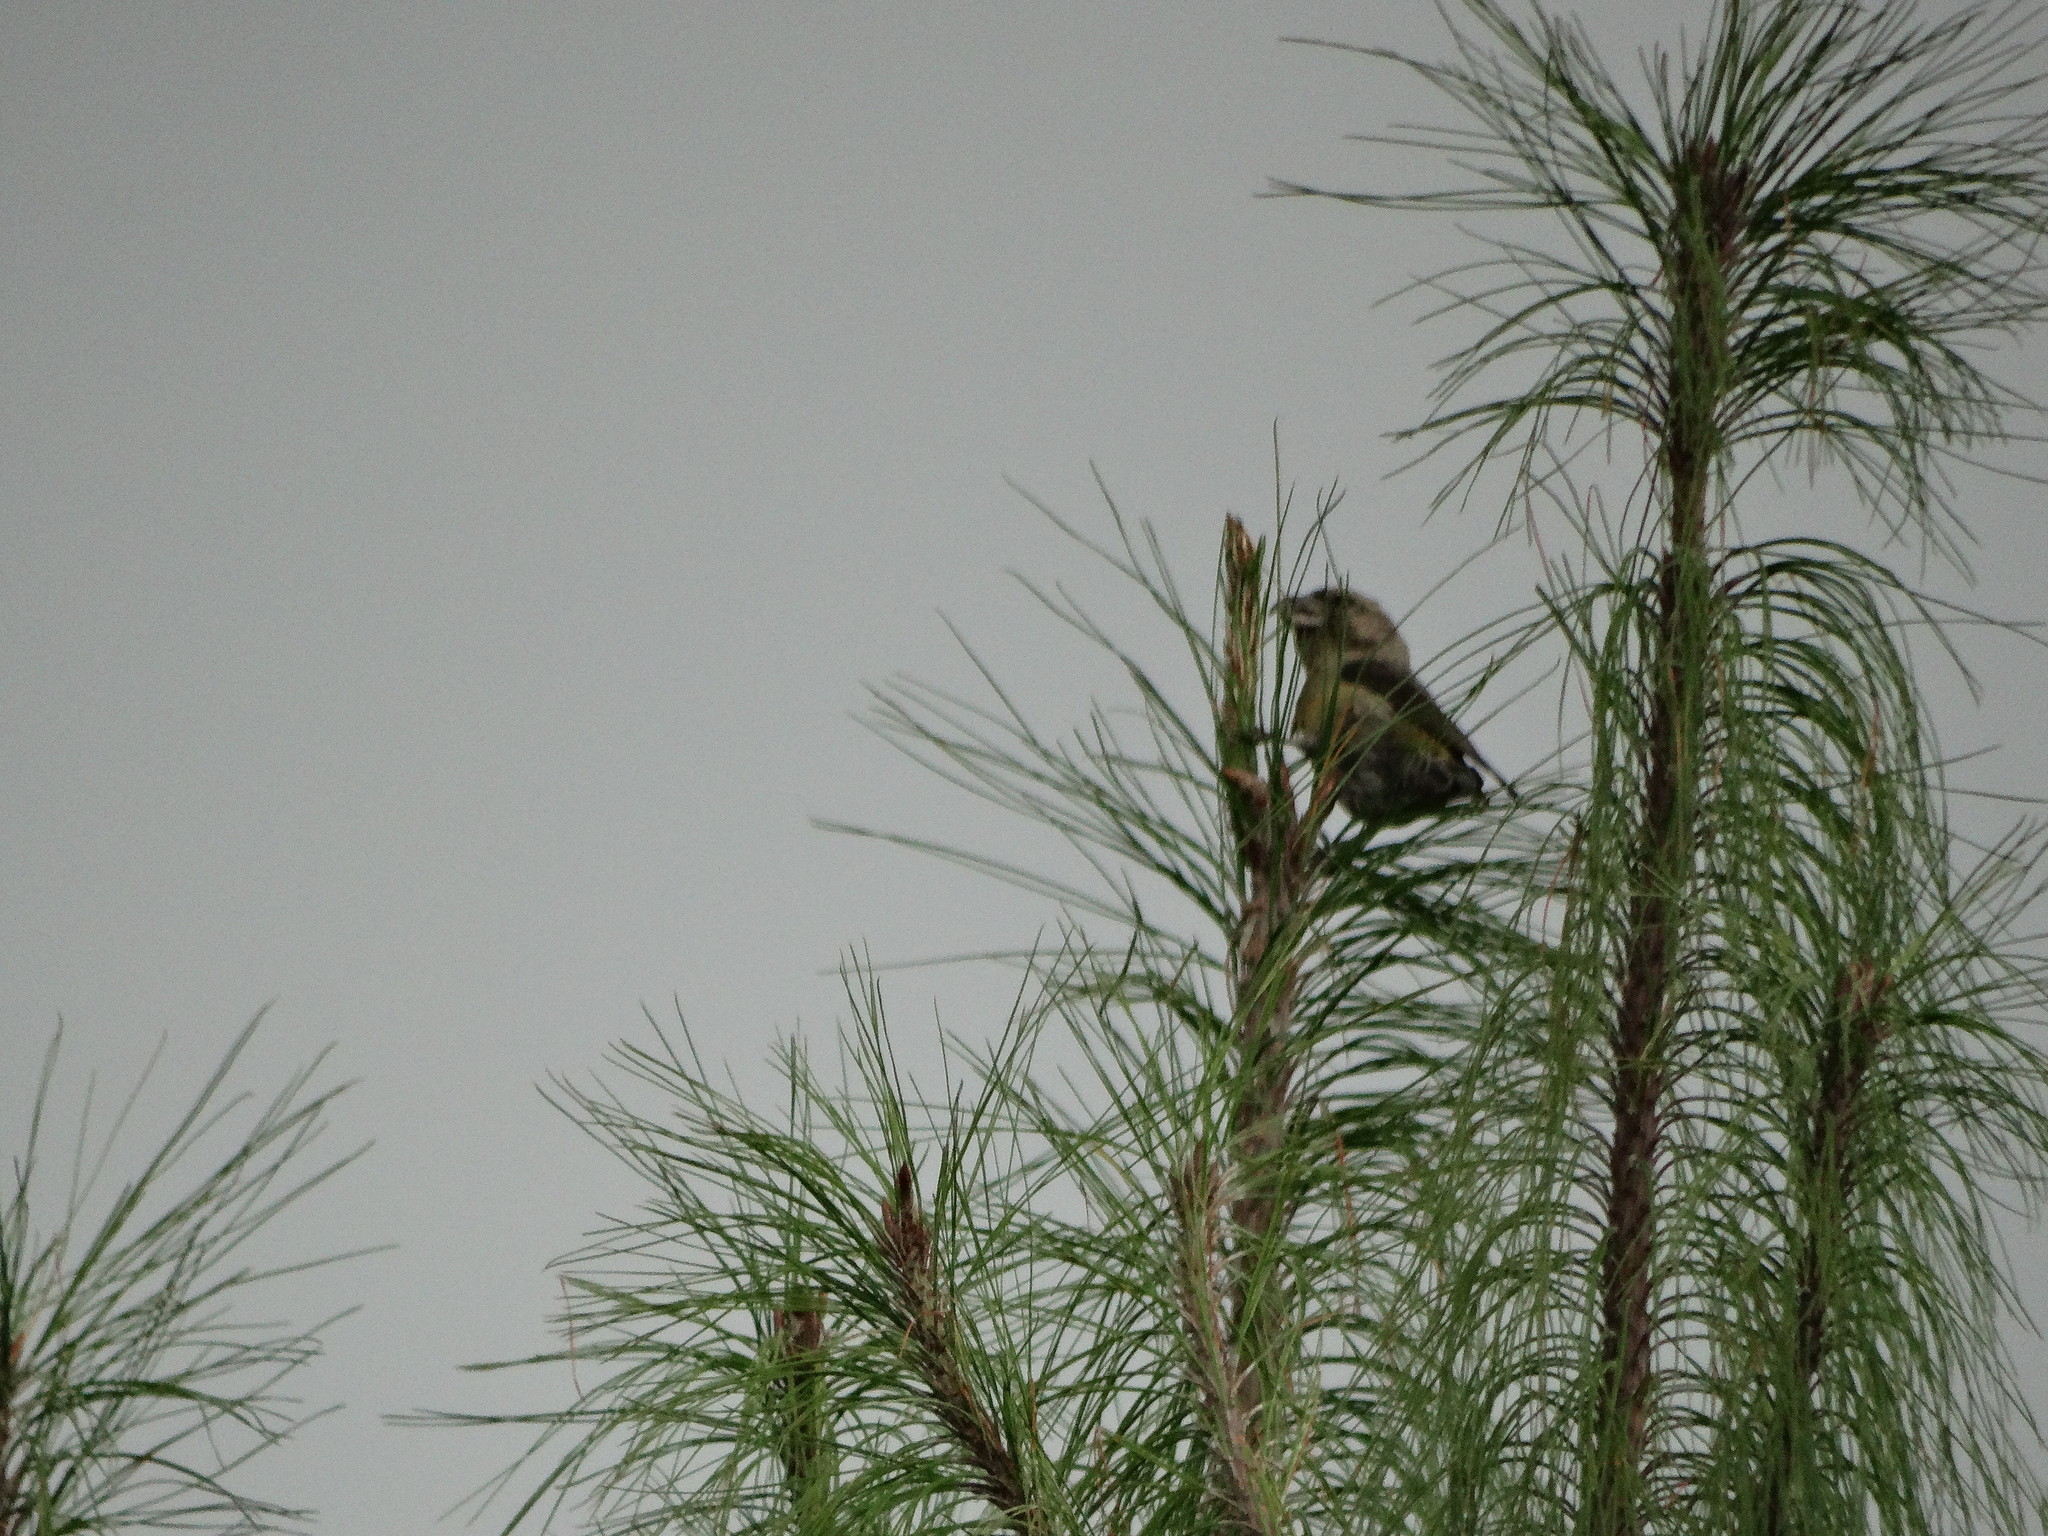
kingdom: Animalia
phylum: Chordata
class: Aves
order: Passeriformes
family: Fringillidae
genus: Loxia
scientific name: Loxia curvirostra
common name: Red crossbill
